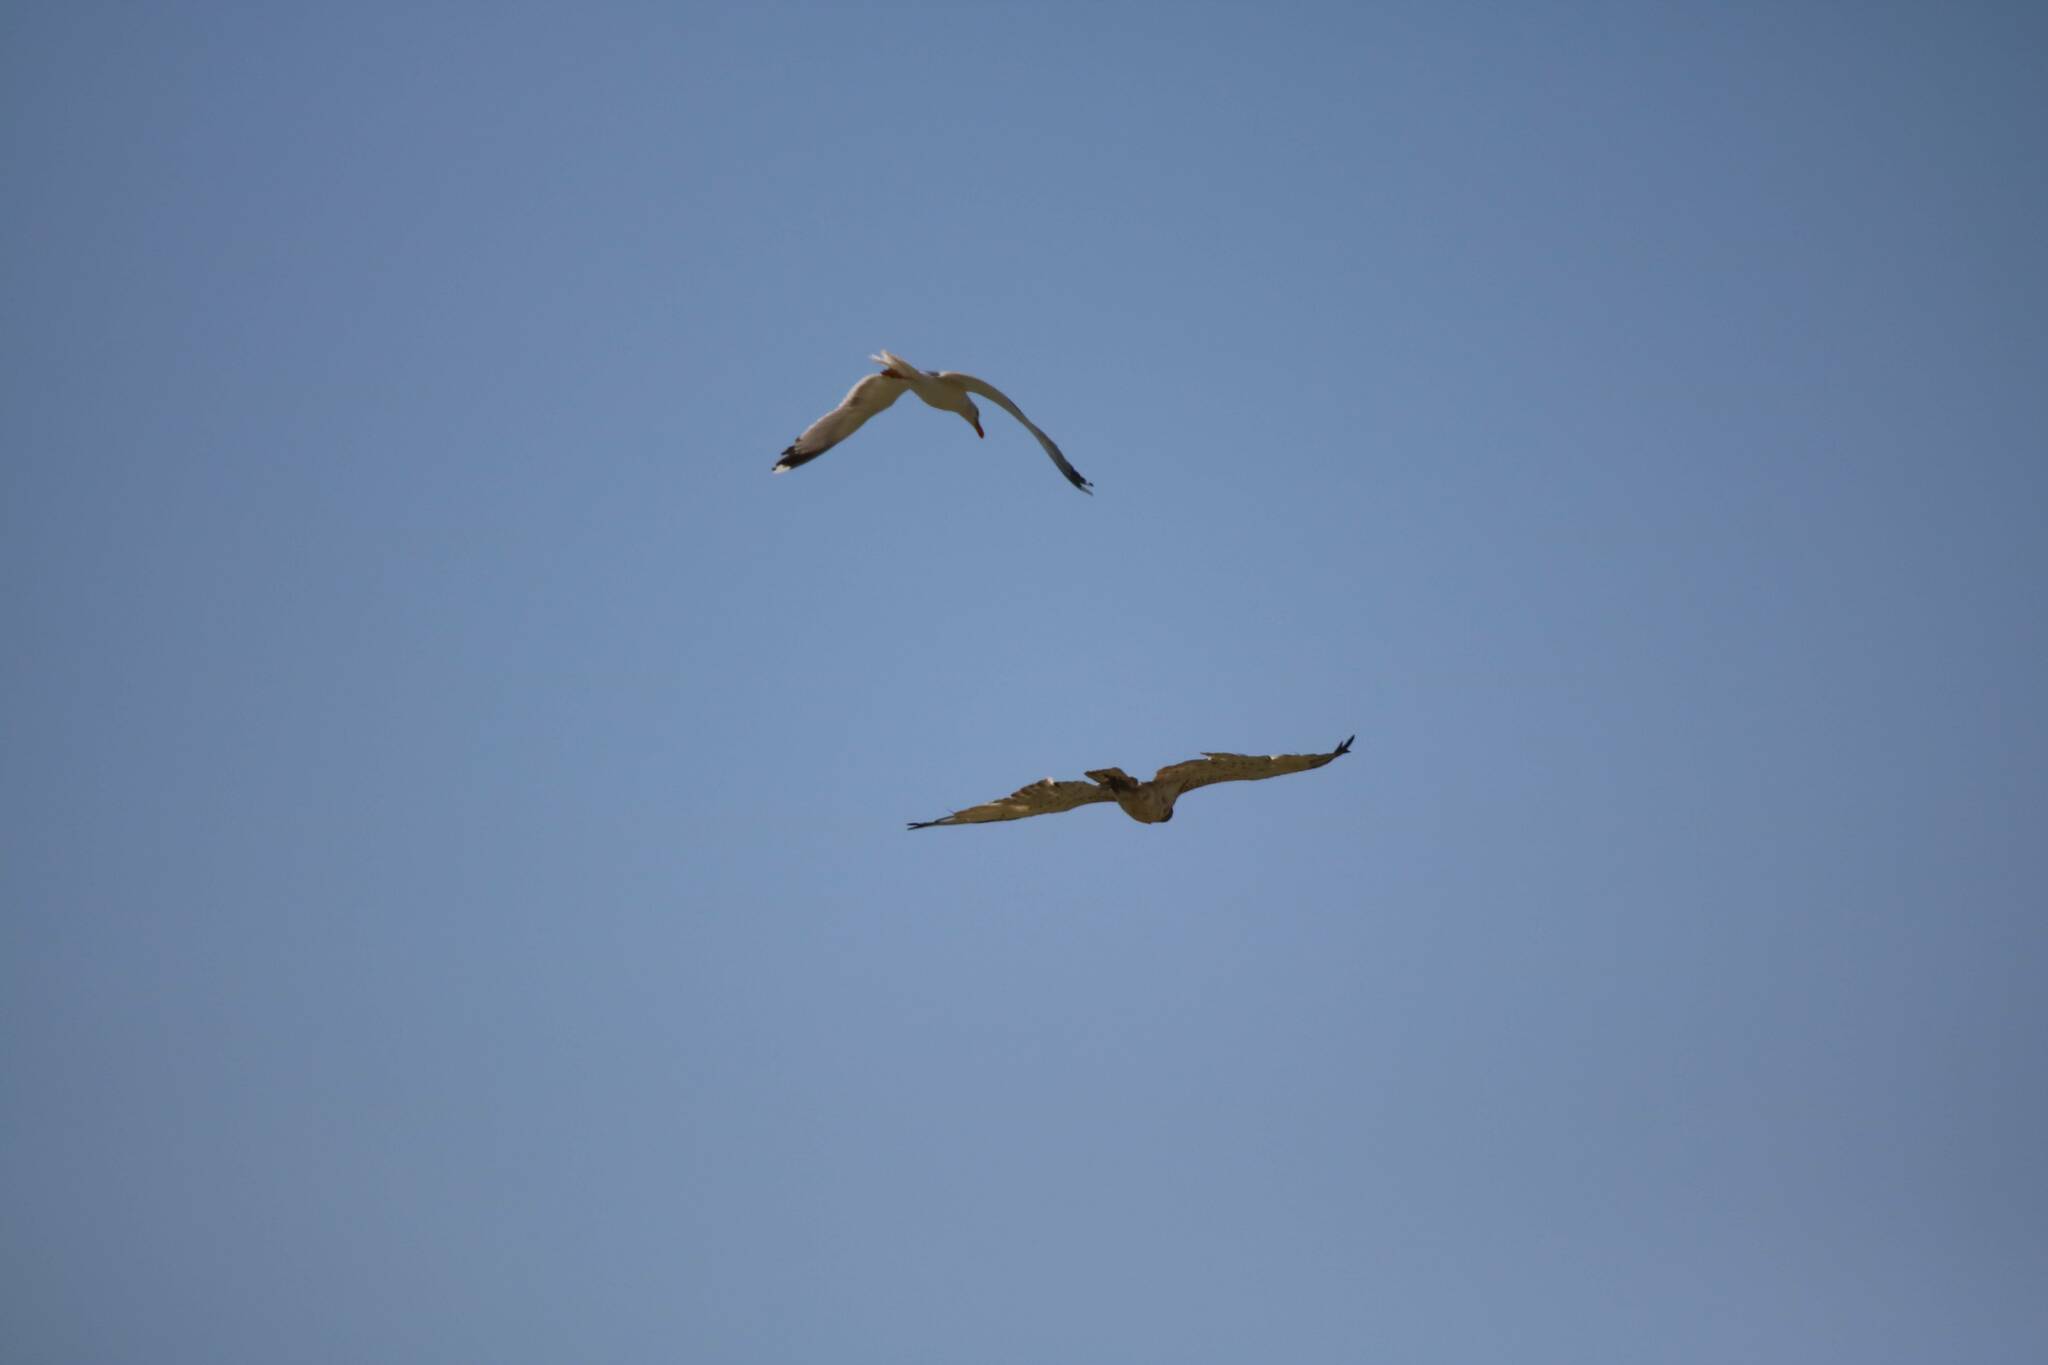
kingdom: Animalia
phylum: Chordata
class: Aves
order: Accipitriformes
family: Accipitridae
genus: Circaetus
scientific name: Circaetus gallicus
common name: Short-toed snake eagle
